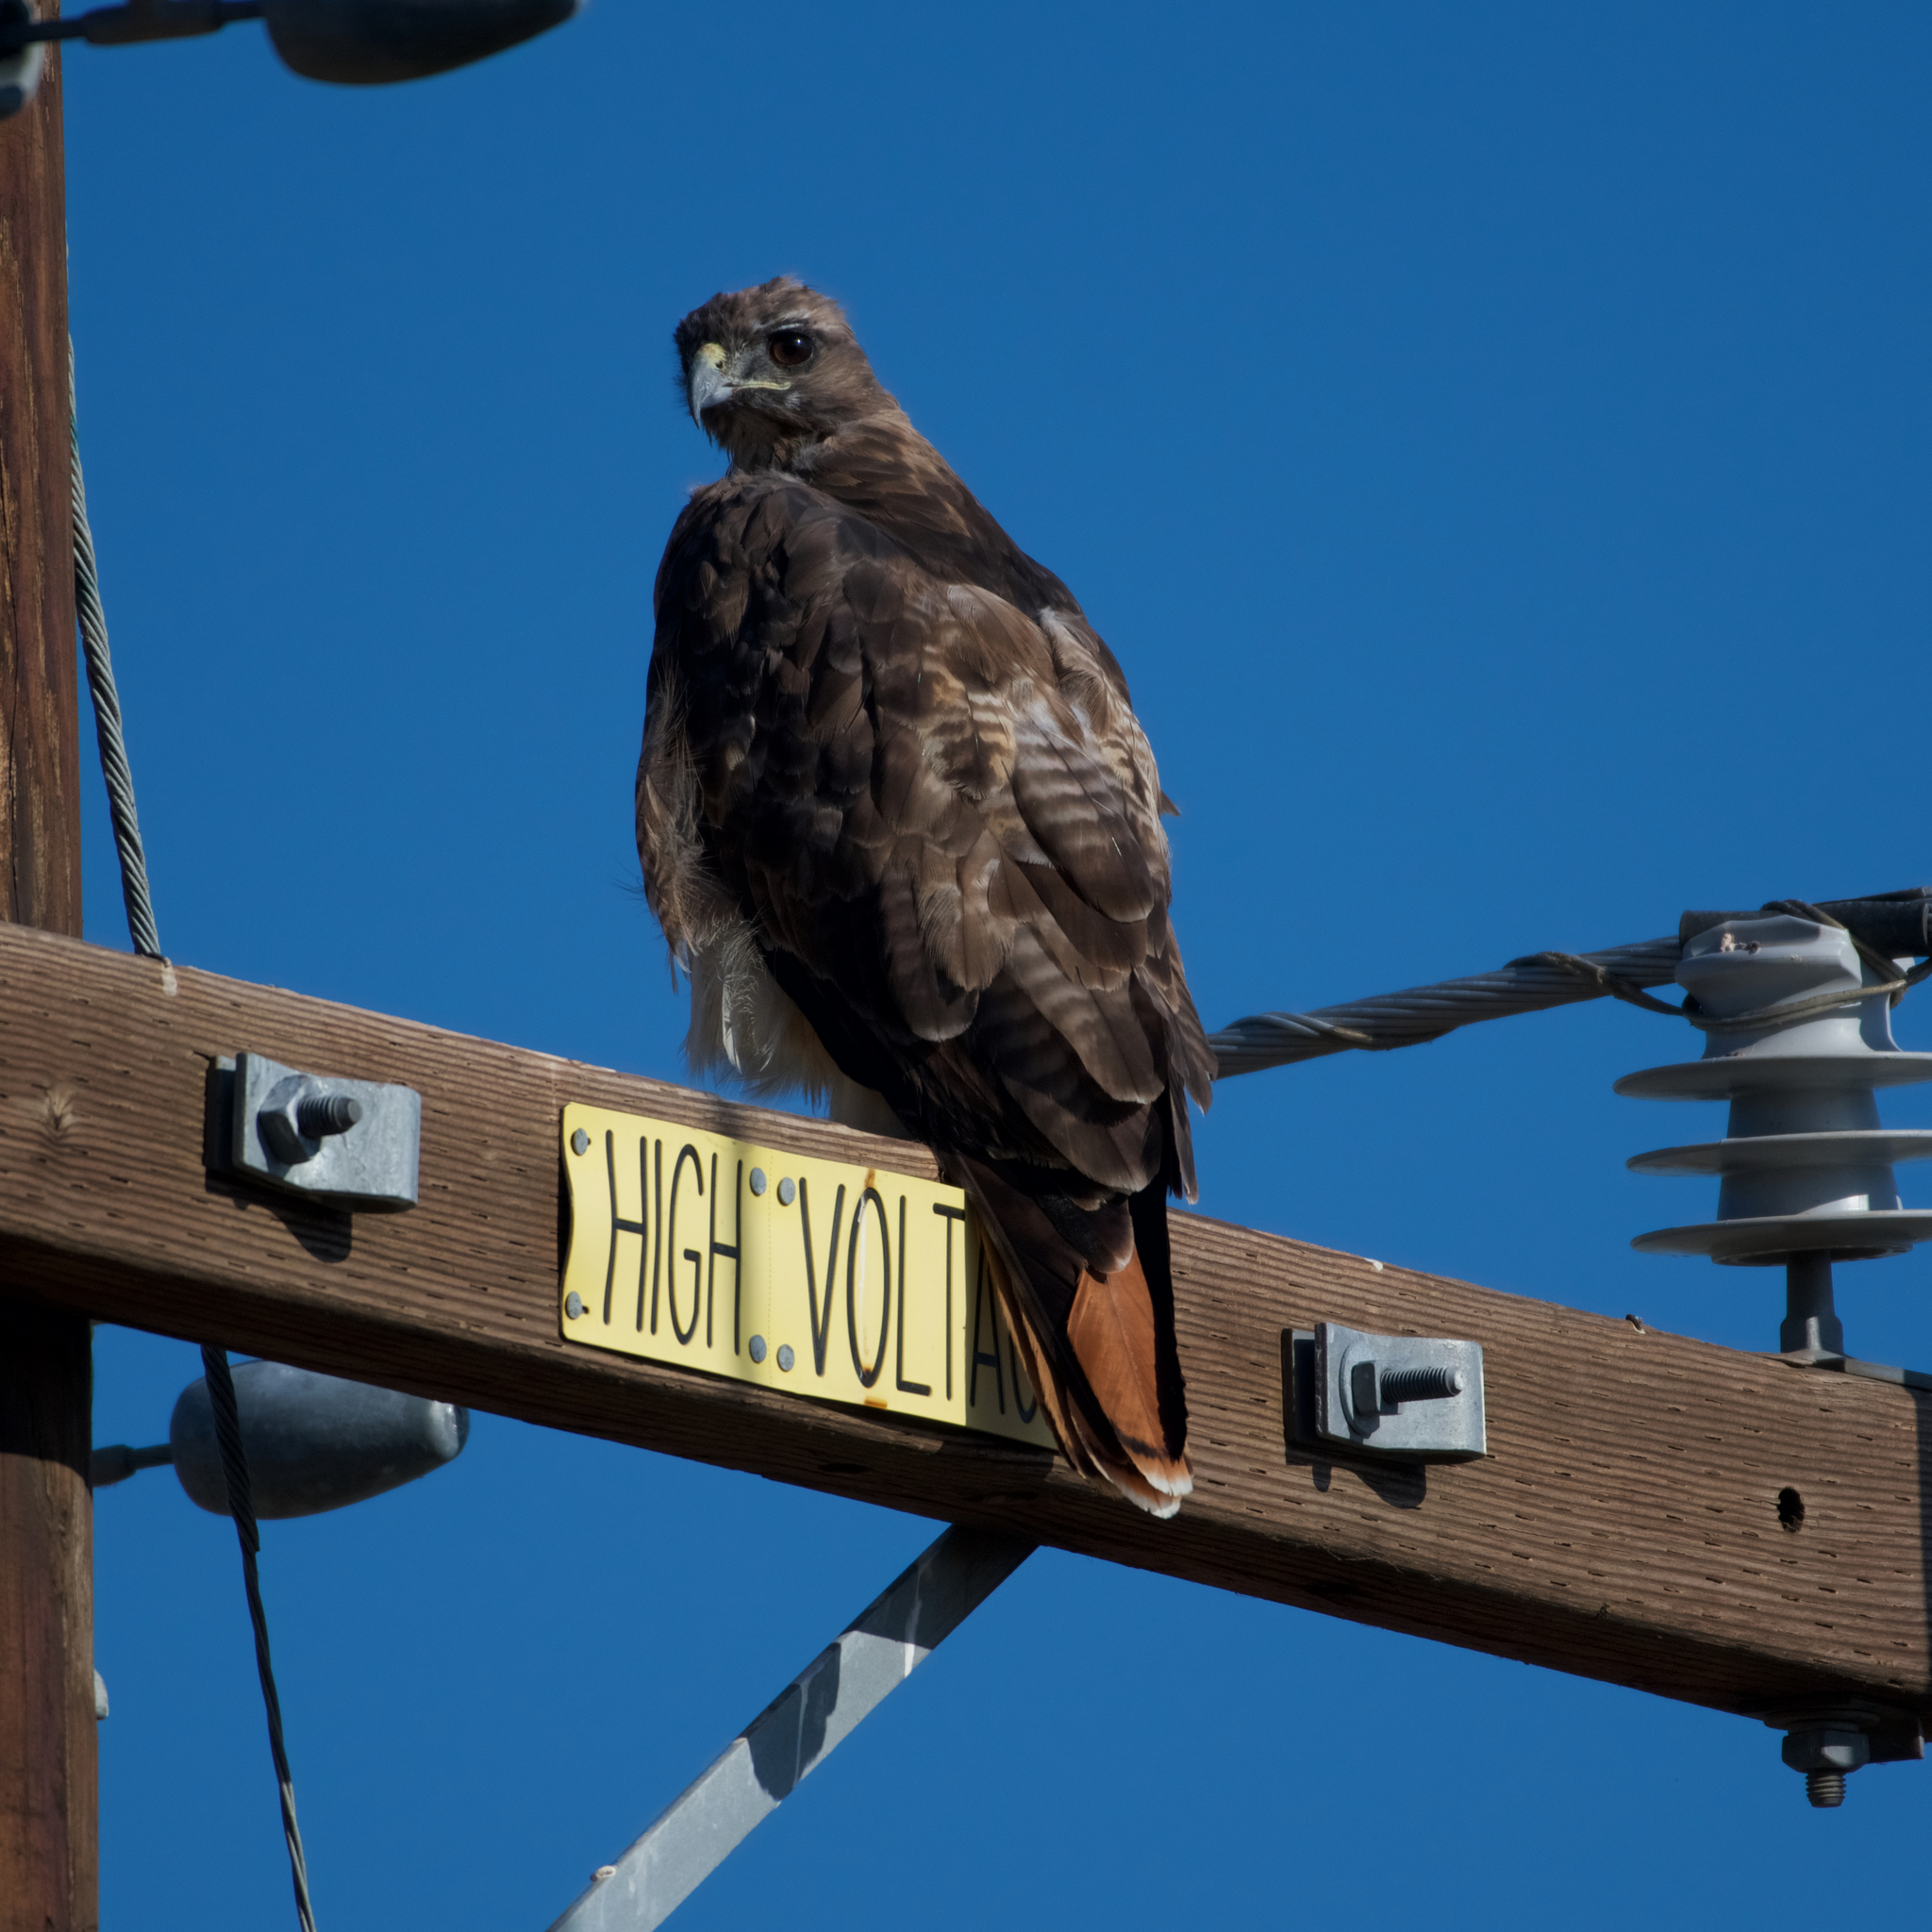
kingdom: Animalia
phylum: Chordata
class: Aves
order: Accipitriformes
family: Accipitridae
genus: Buteo
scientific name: Buteo jamaicensis
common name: Red-tailed hawk
